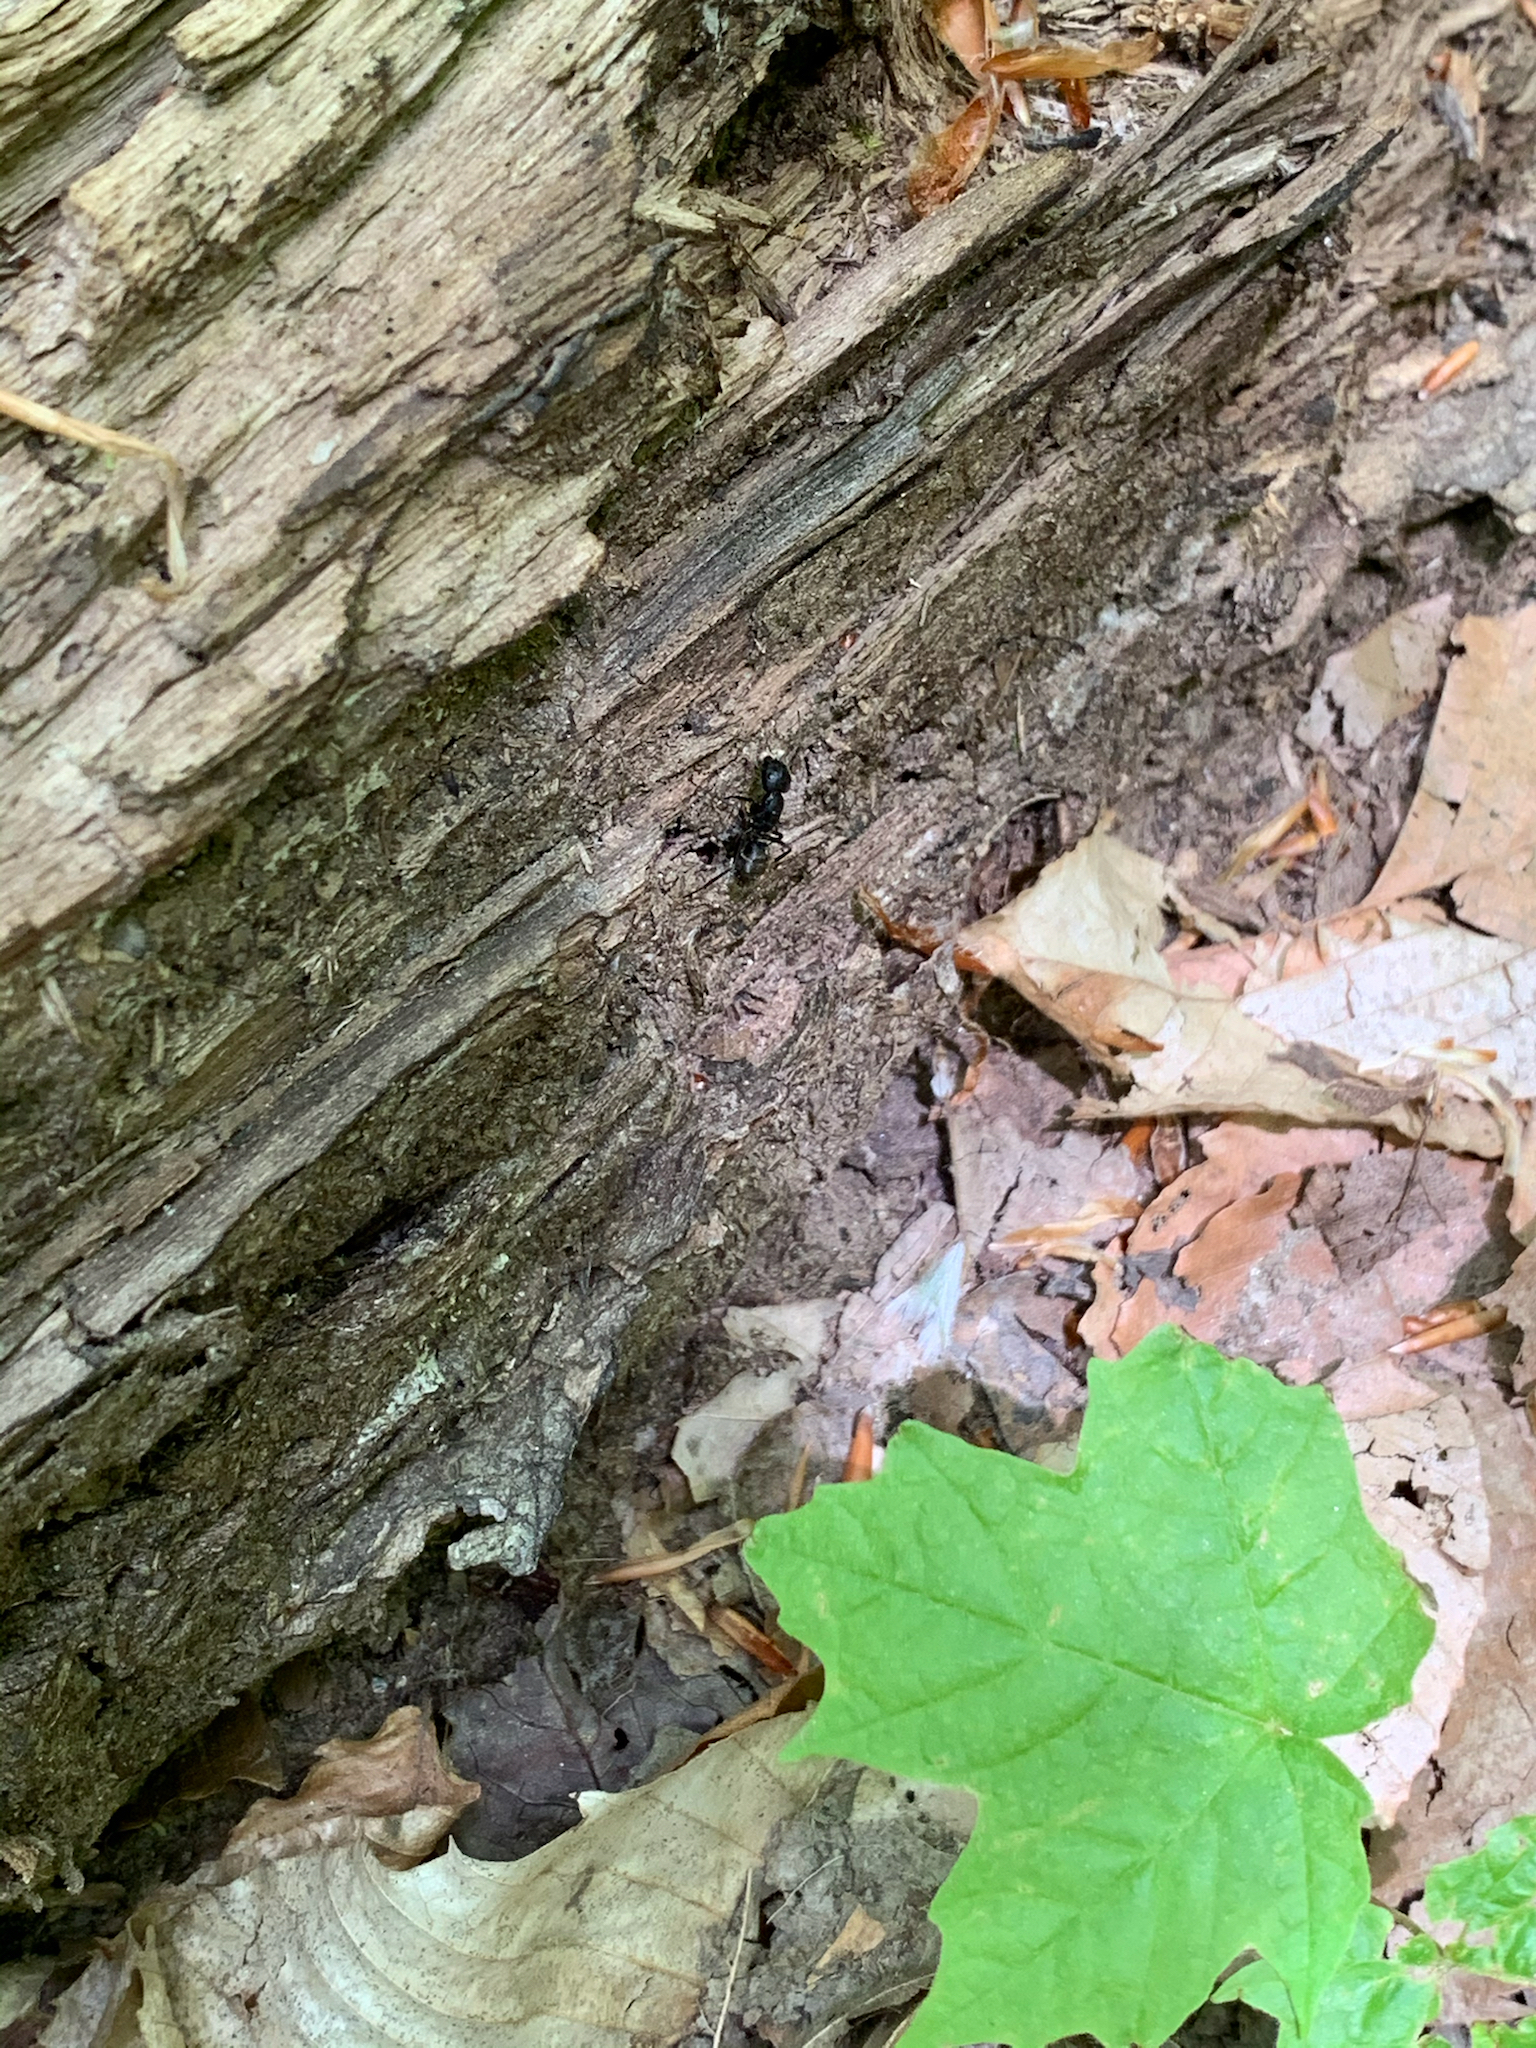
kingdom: Animalia
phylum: Arthropoda
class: Insecta
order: Hymenoptera
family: Formicidae
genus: Camponotus
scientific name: Camponotus pennsylvanicus
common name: Black carpenter ant
